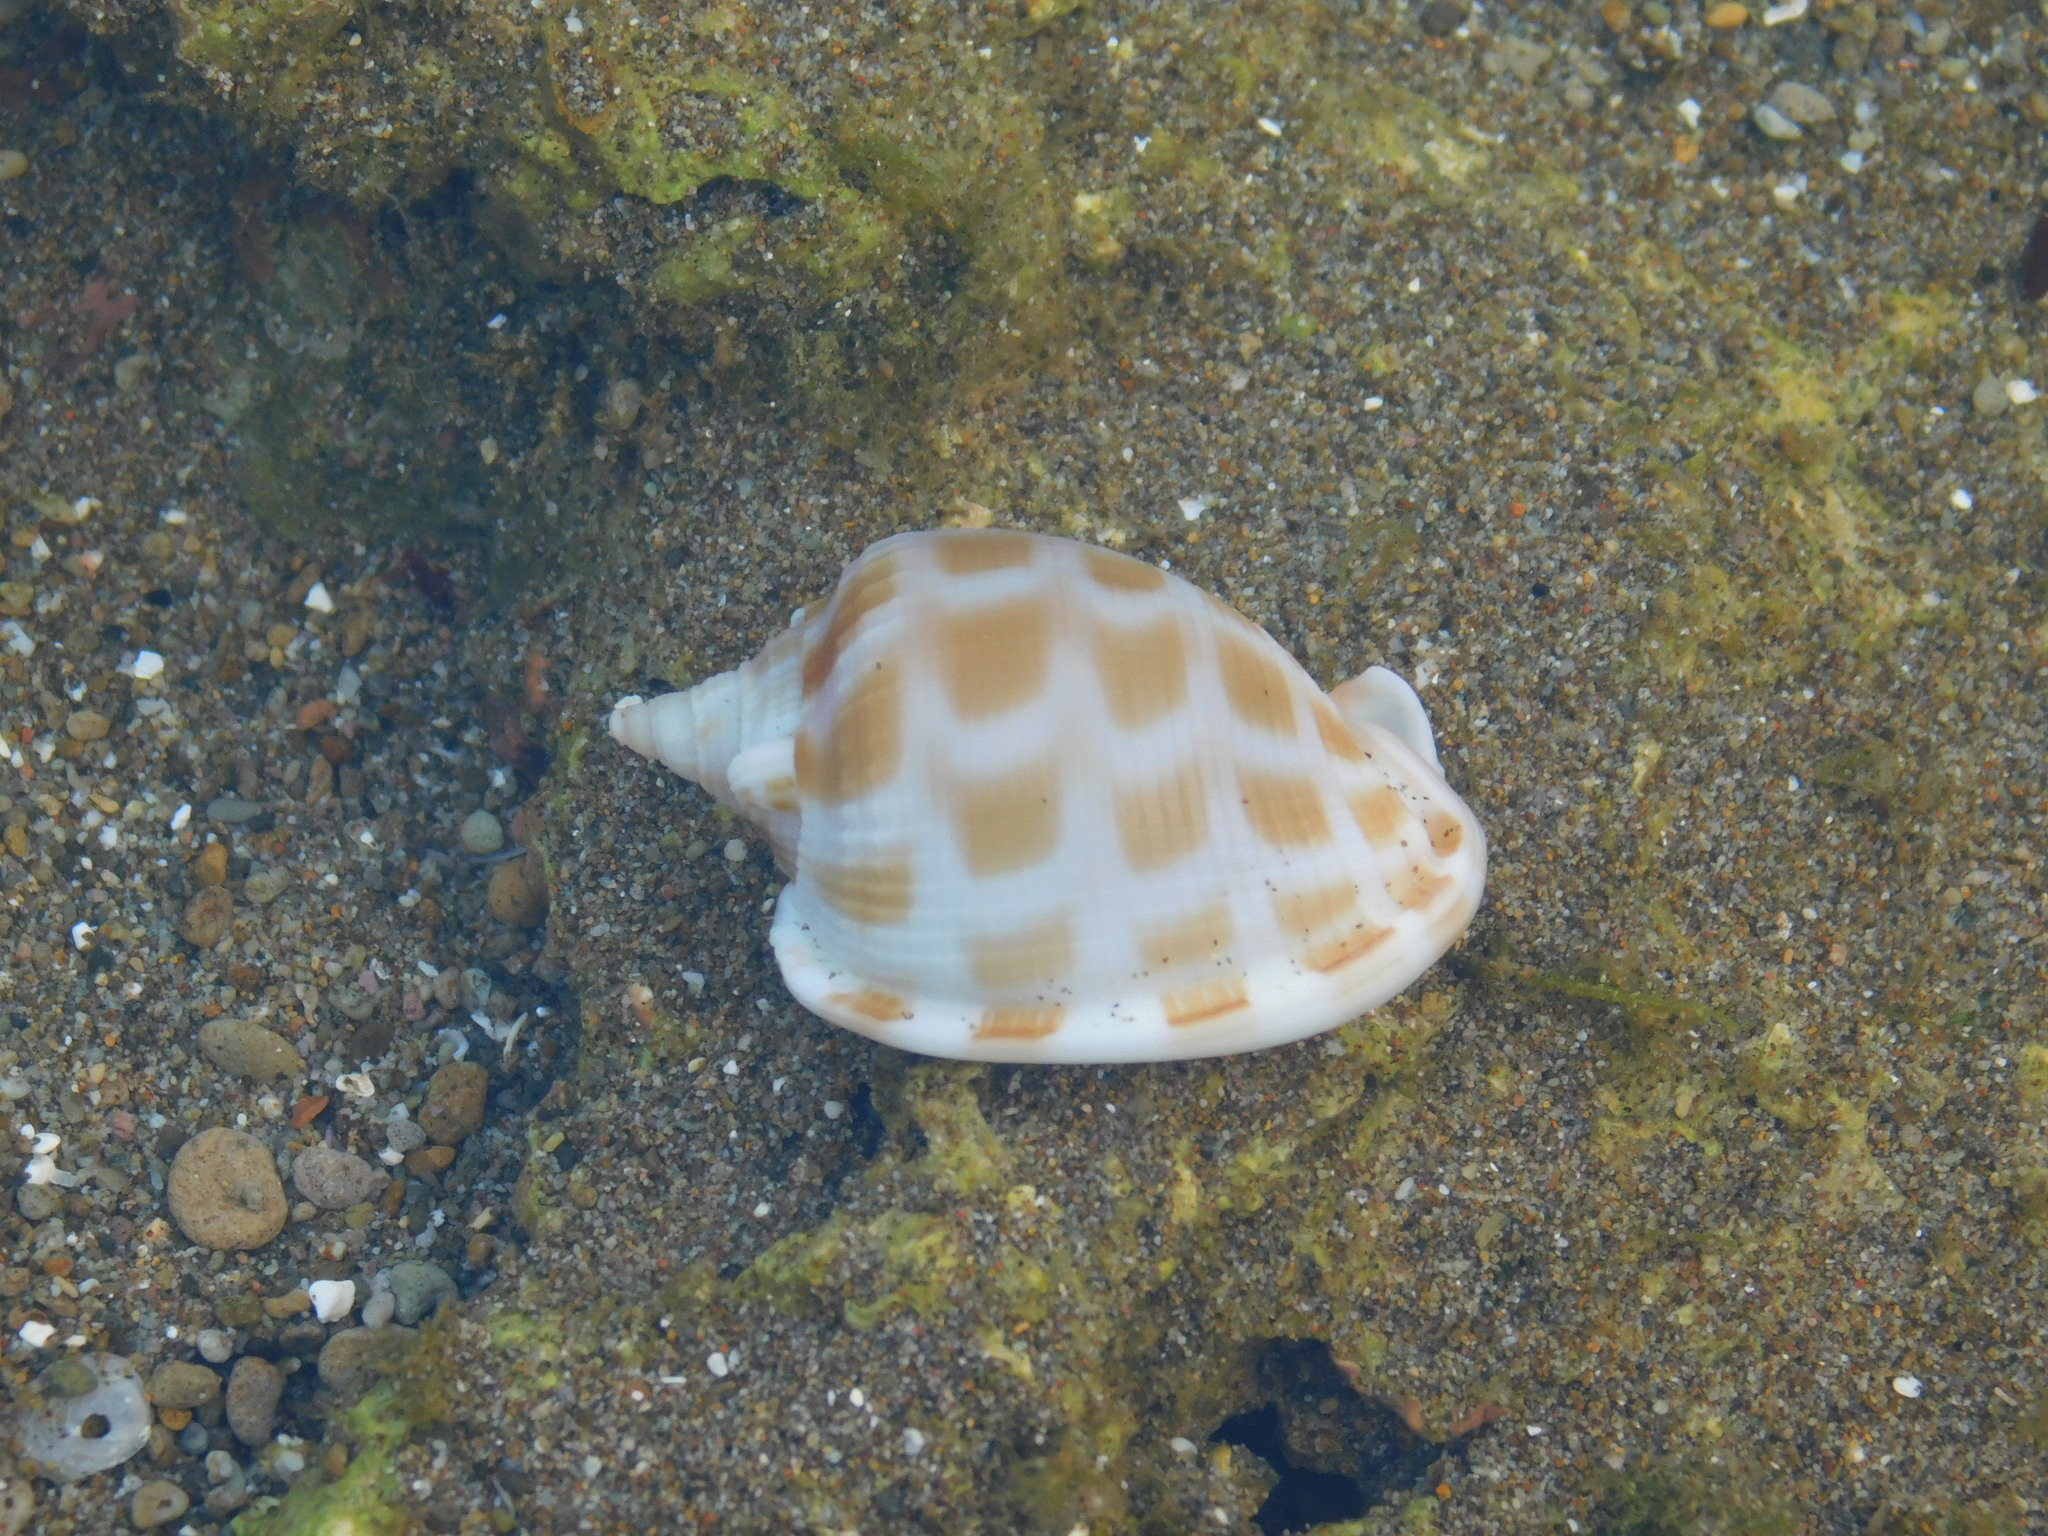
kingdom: Animalia
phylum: Mollusca
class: Gastropoda
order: Littorinimorpha
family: Cassidae
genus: Phalium
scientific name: Phalium areola
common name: Checkered bonnet
